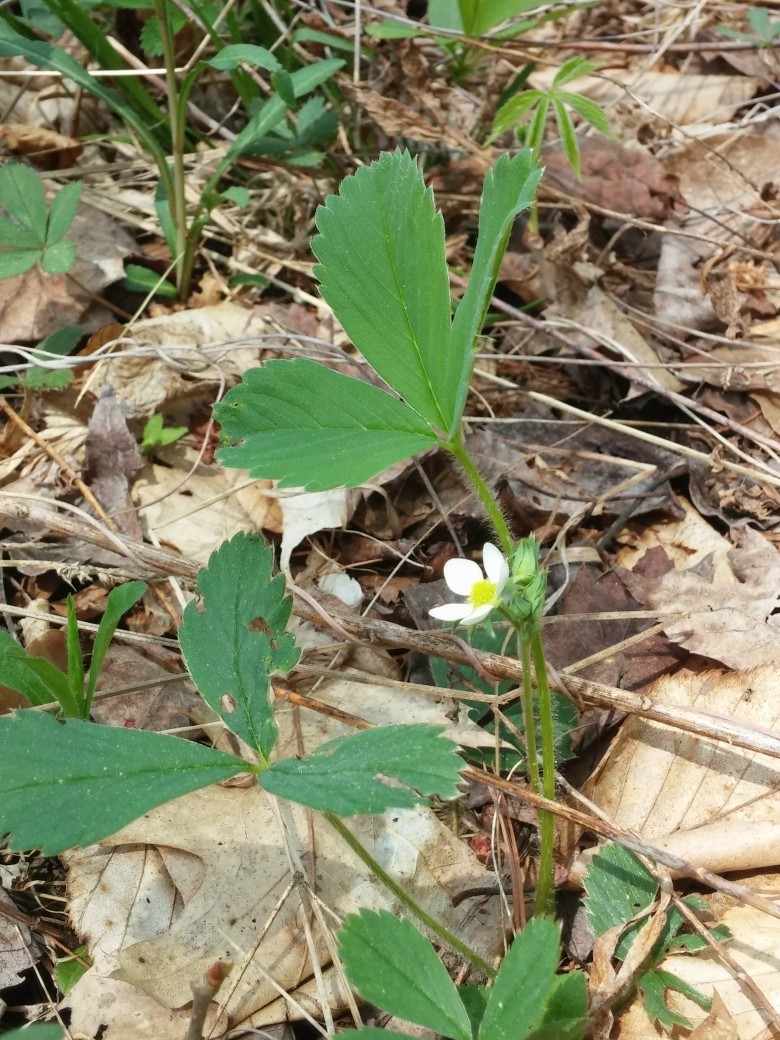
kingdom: Plantae
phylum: Tracheophyta
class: Magnoliopsida
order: Rosales
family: Rosaceae
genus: Fragaria
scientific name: Fragaria virginiana
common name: Thickleaved wild strawberry
